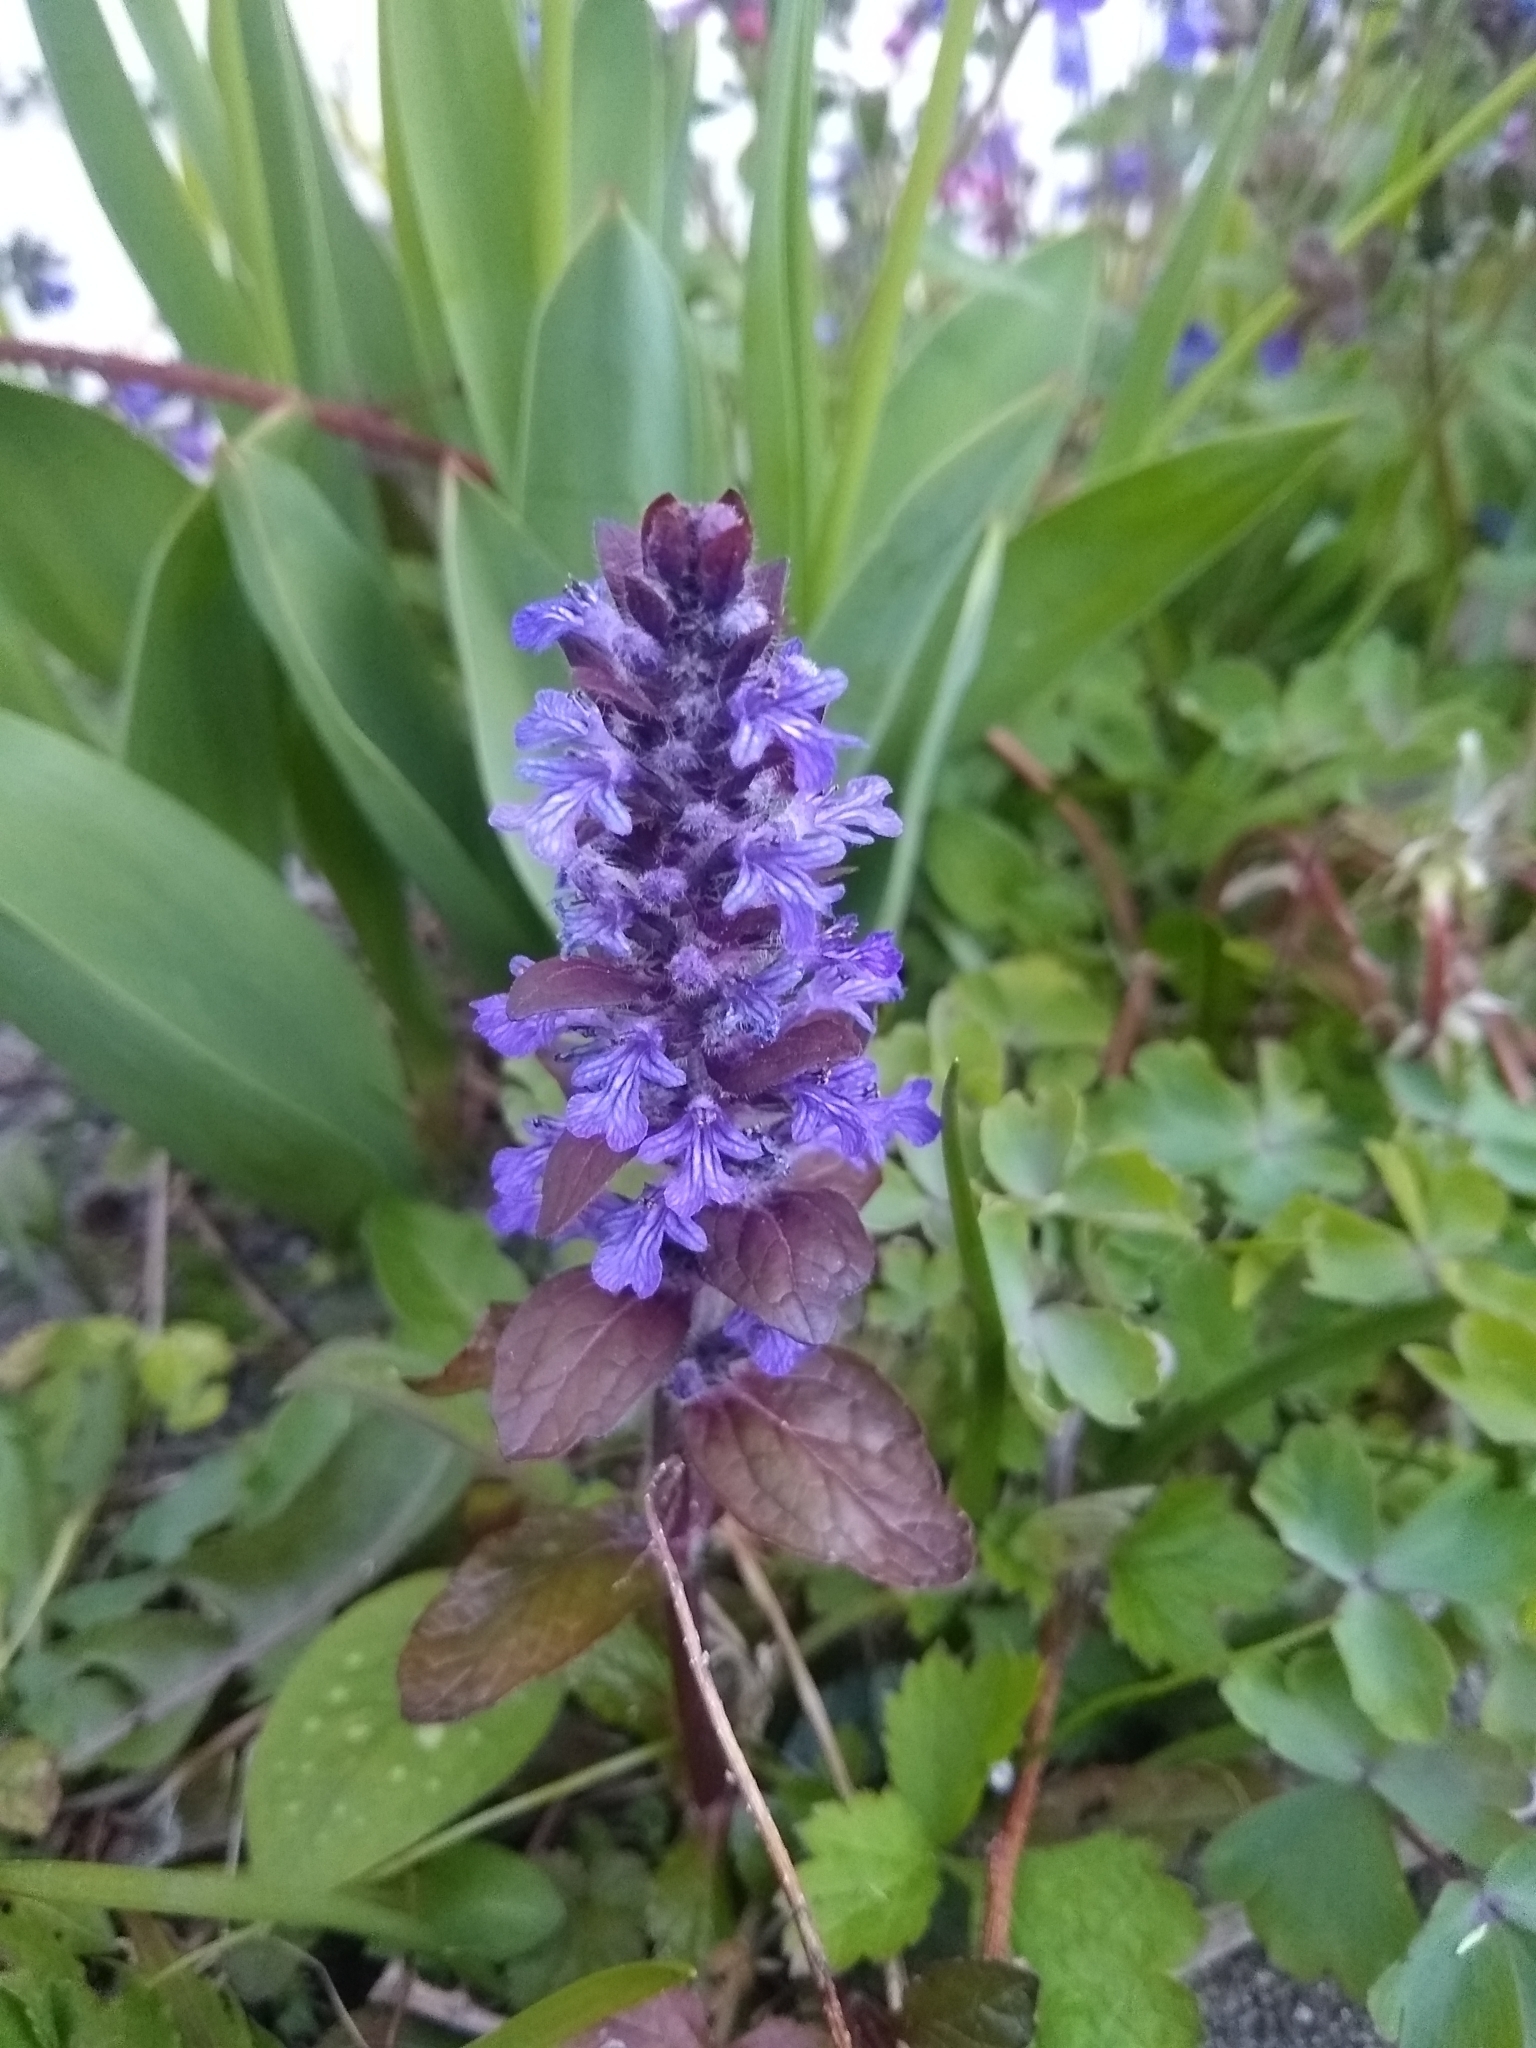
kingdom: Plantae
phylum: Tracheophyta
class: Magnoliopsida
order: Lamiales
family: Lamiaceae
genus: Ajuga
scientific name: Ajuga reptans
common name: Bugle
